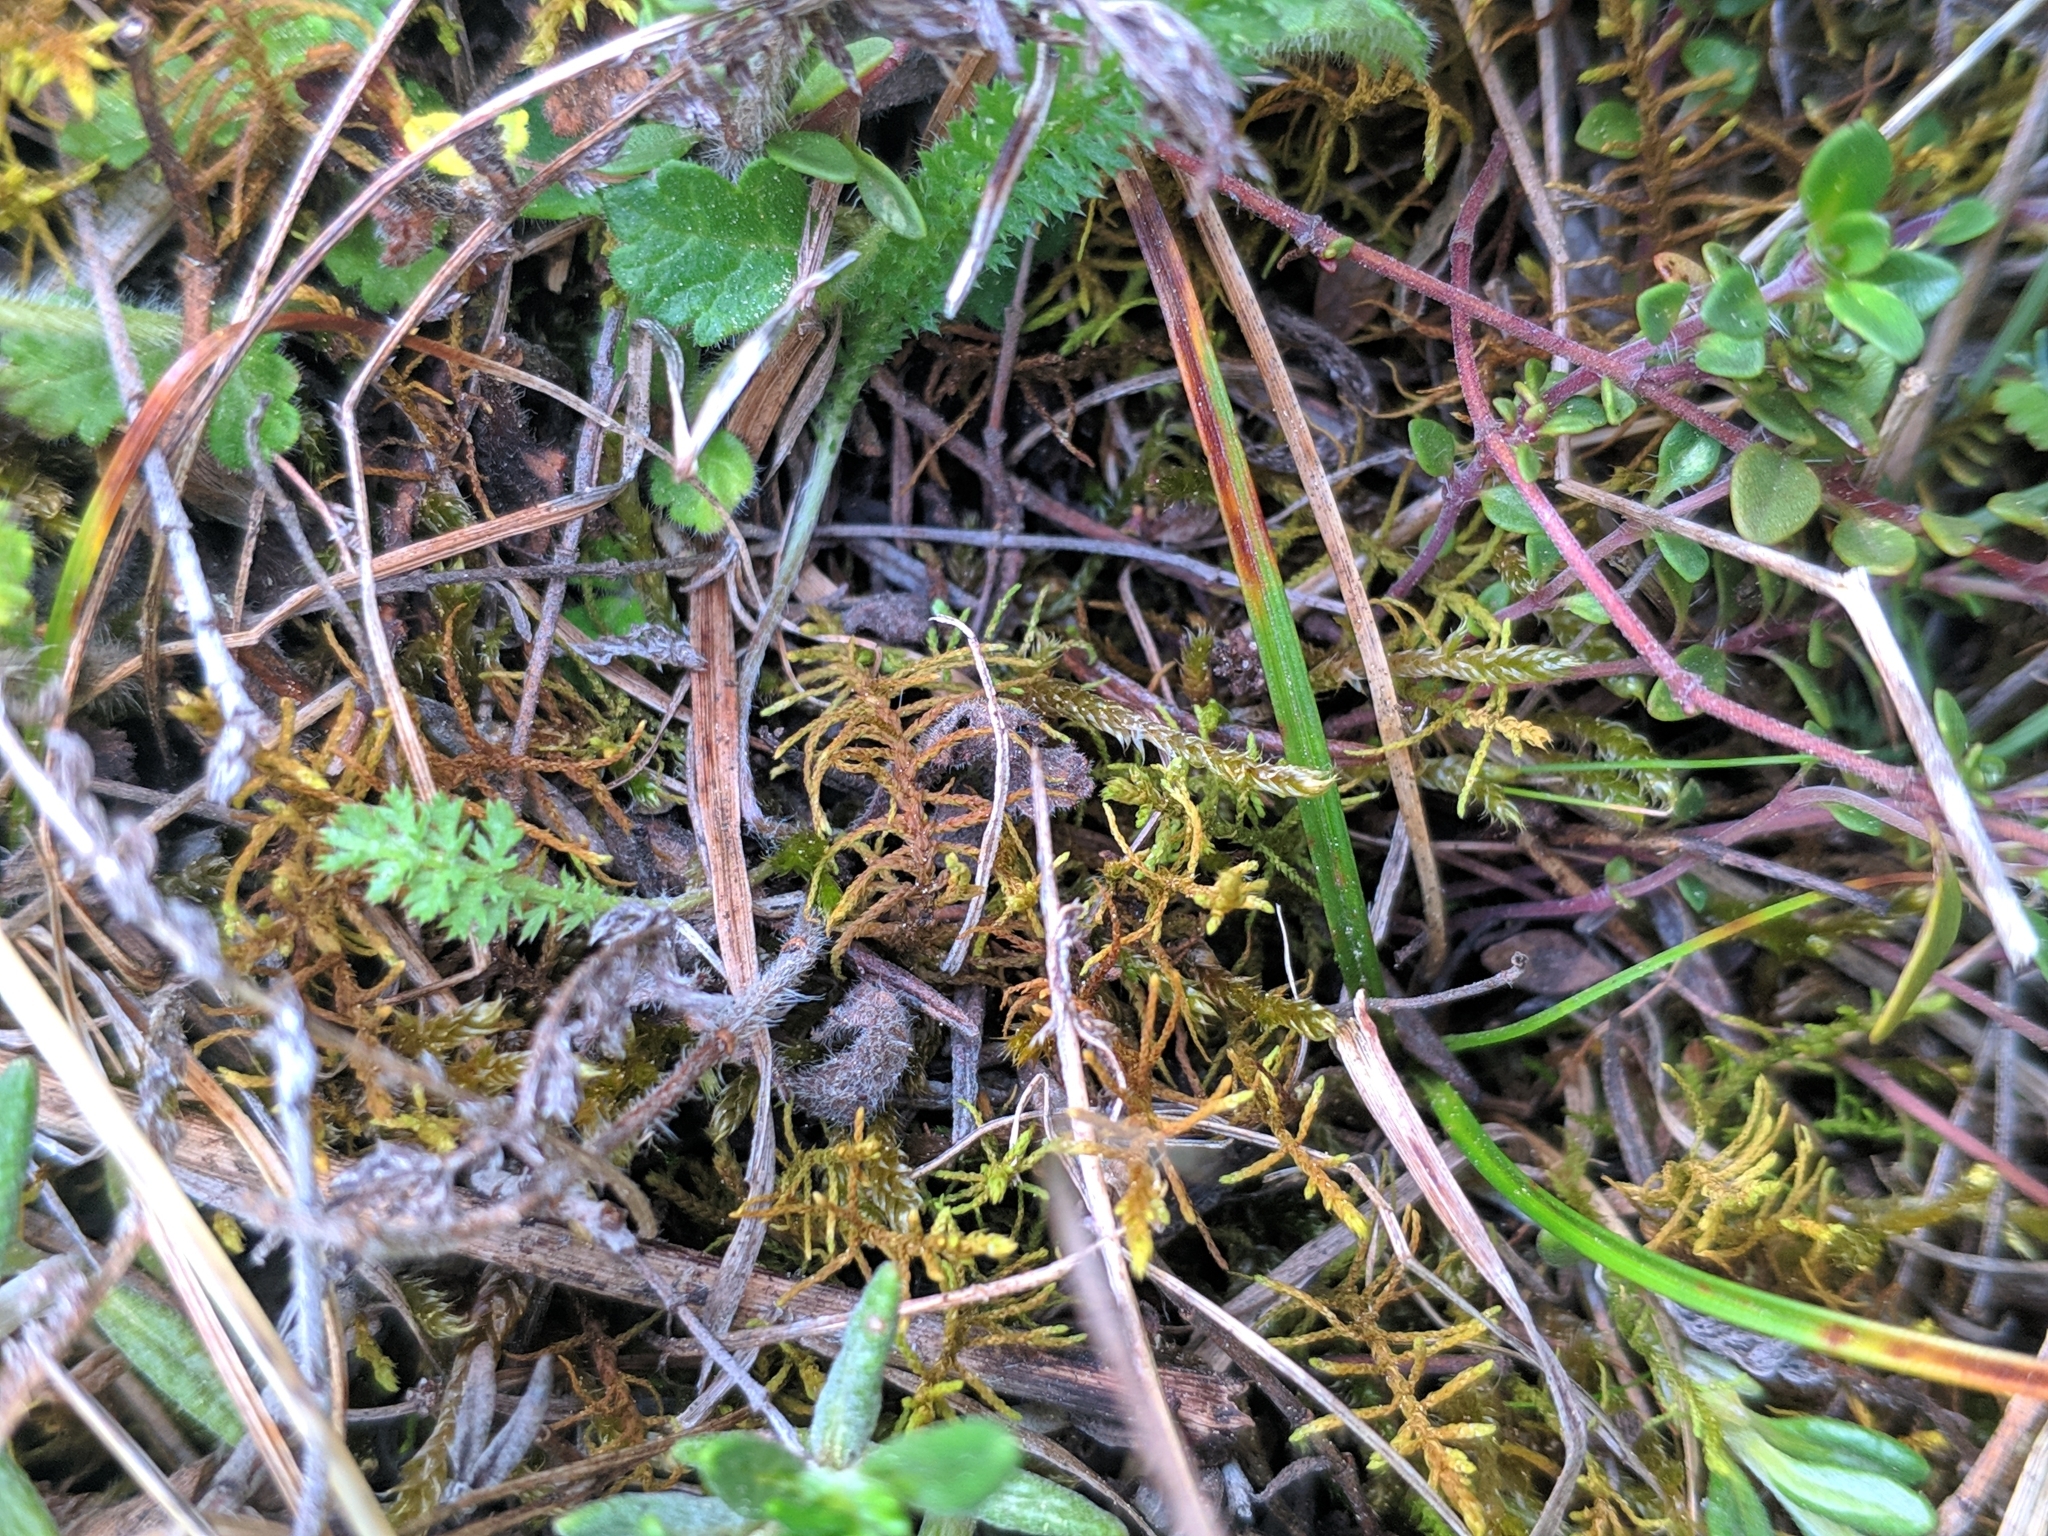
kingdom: Plantae
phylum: Bryophyta
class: Bryopsida
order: Hypnales
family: Thuidiaceae
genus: Abietinella
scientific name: Abietinella abietina
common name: Wiry fern moss
